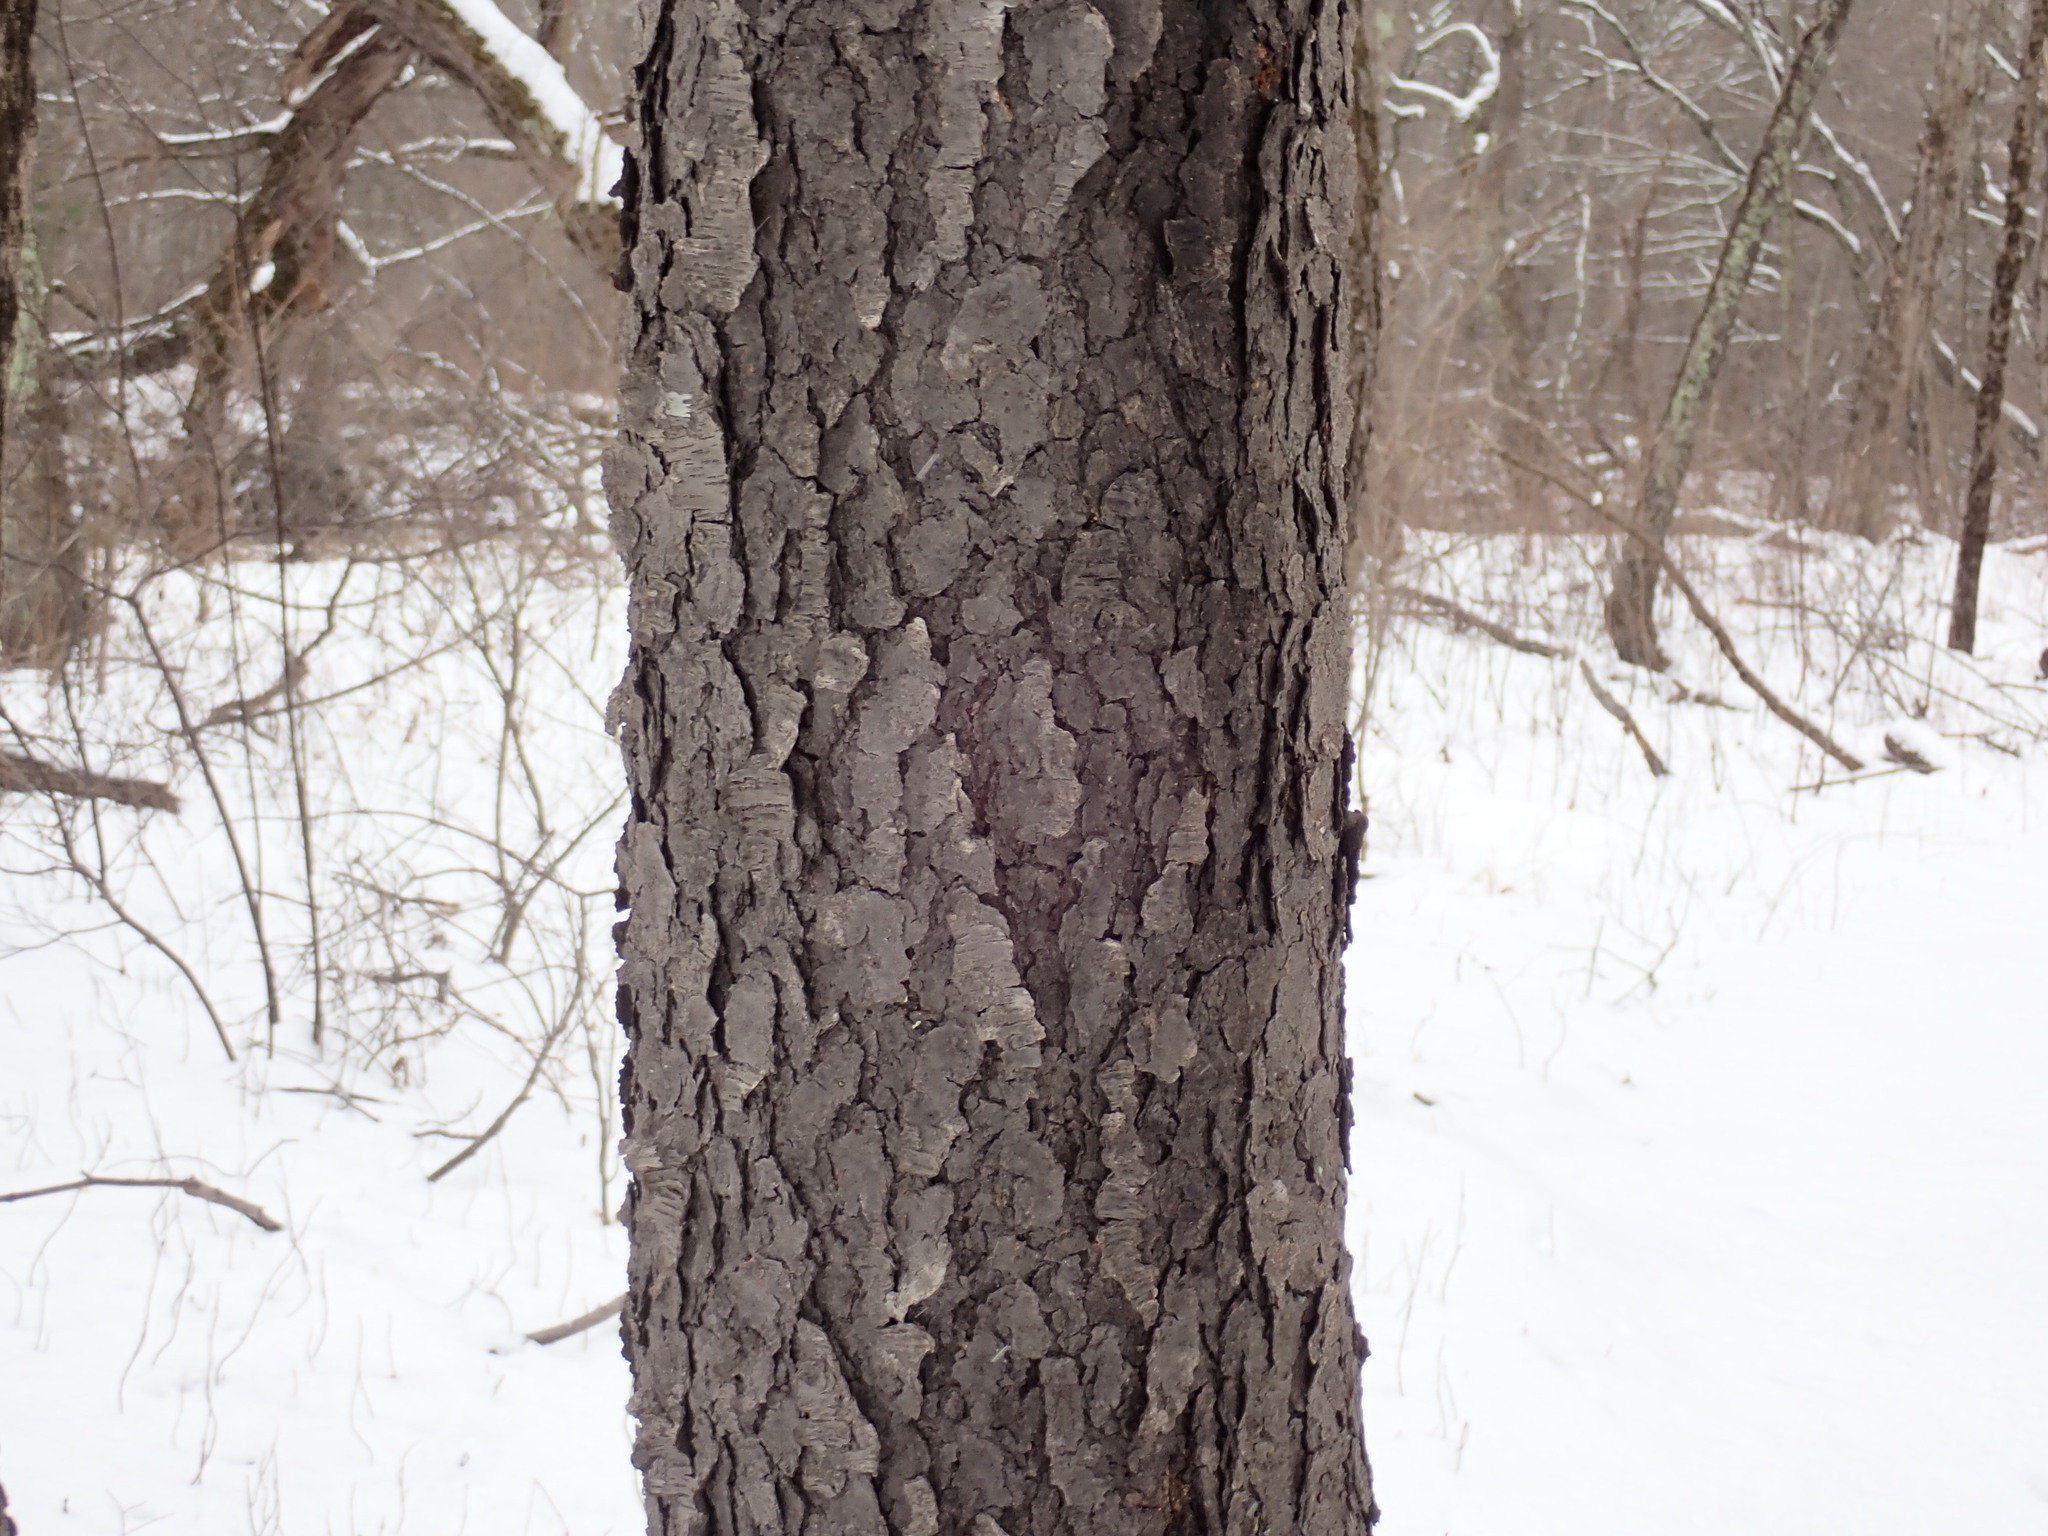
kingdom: Plantae
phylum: Tracheophyta
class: Magnoliopsida
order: Rosales
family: Rosaceae
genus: Prunus
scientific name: Prunus serotina
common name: Black cherry
